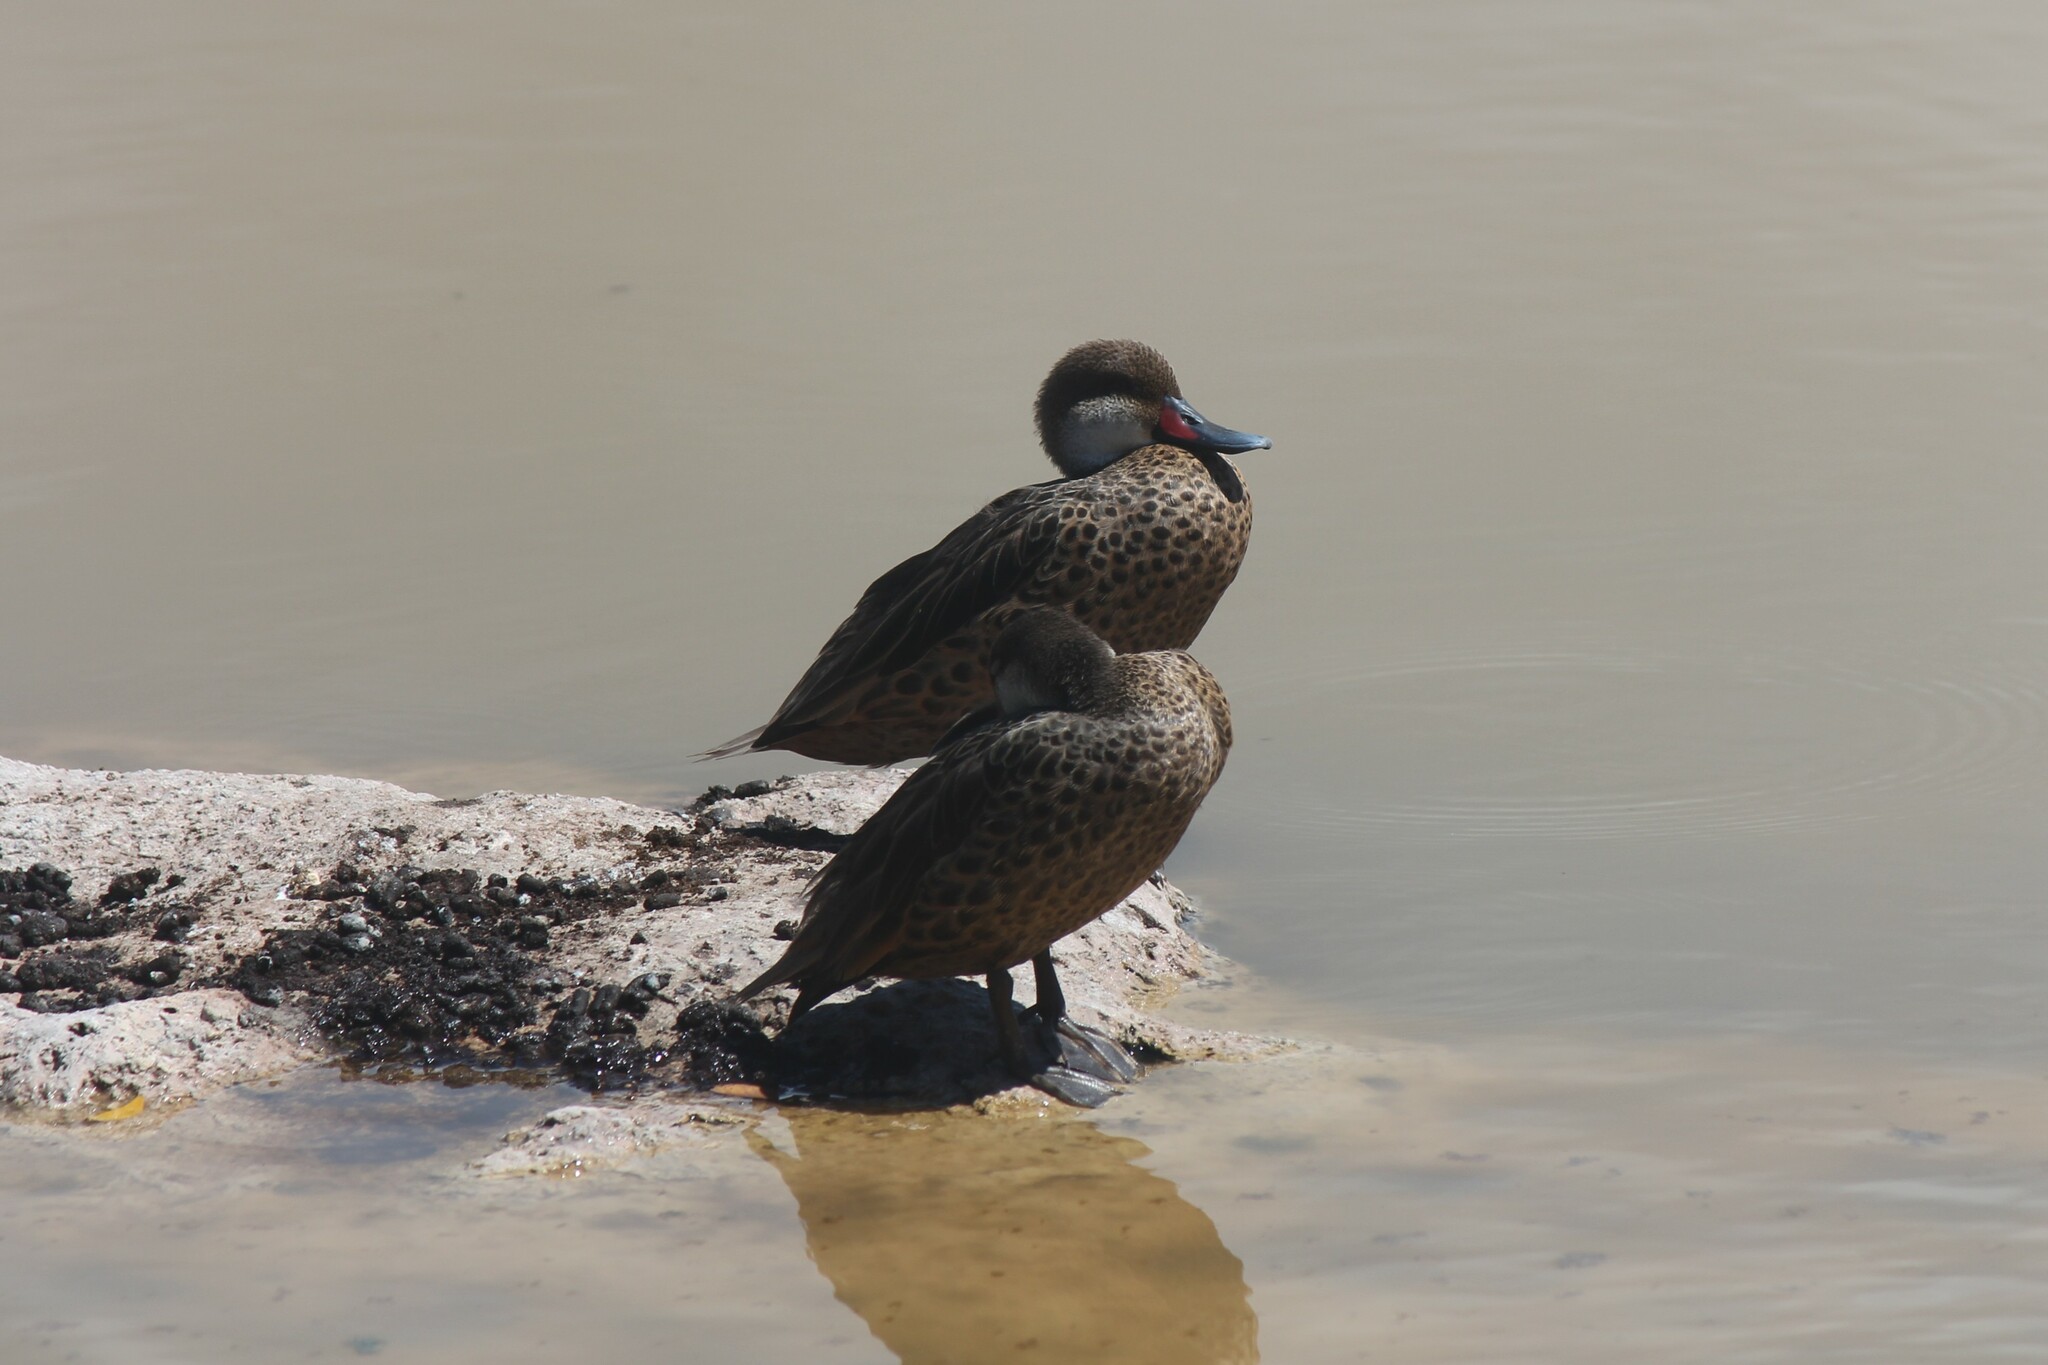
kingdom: Animalia
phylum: Chordata
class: Aves
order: Anseriformes
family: Anatidae
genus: Anas
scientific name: Anas bahamensis
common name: White-cheeked pintail
